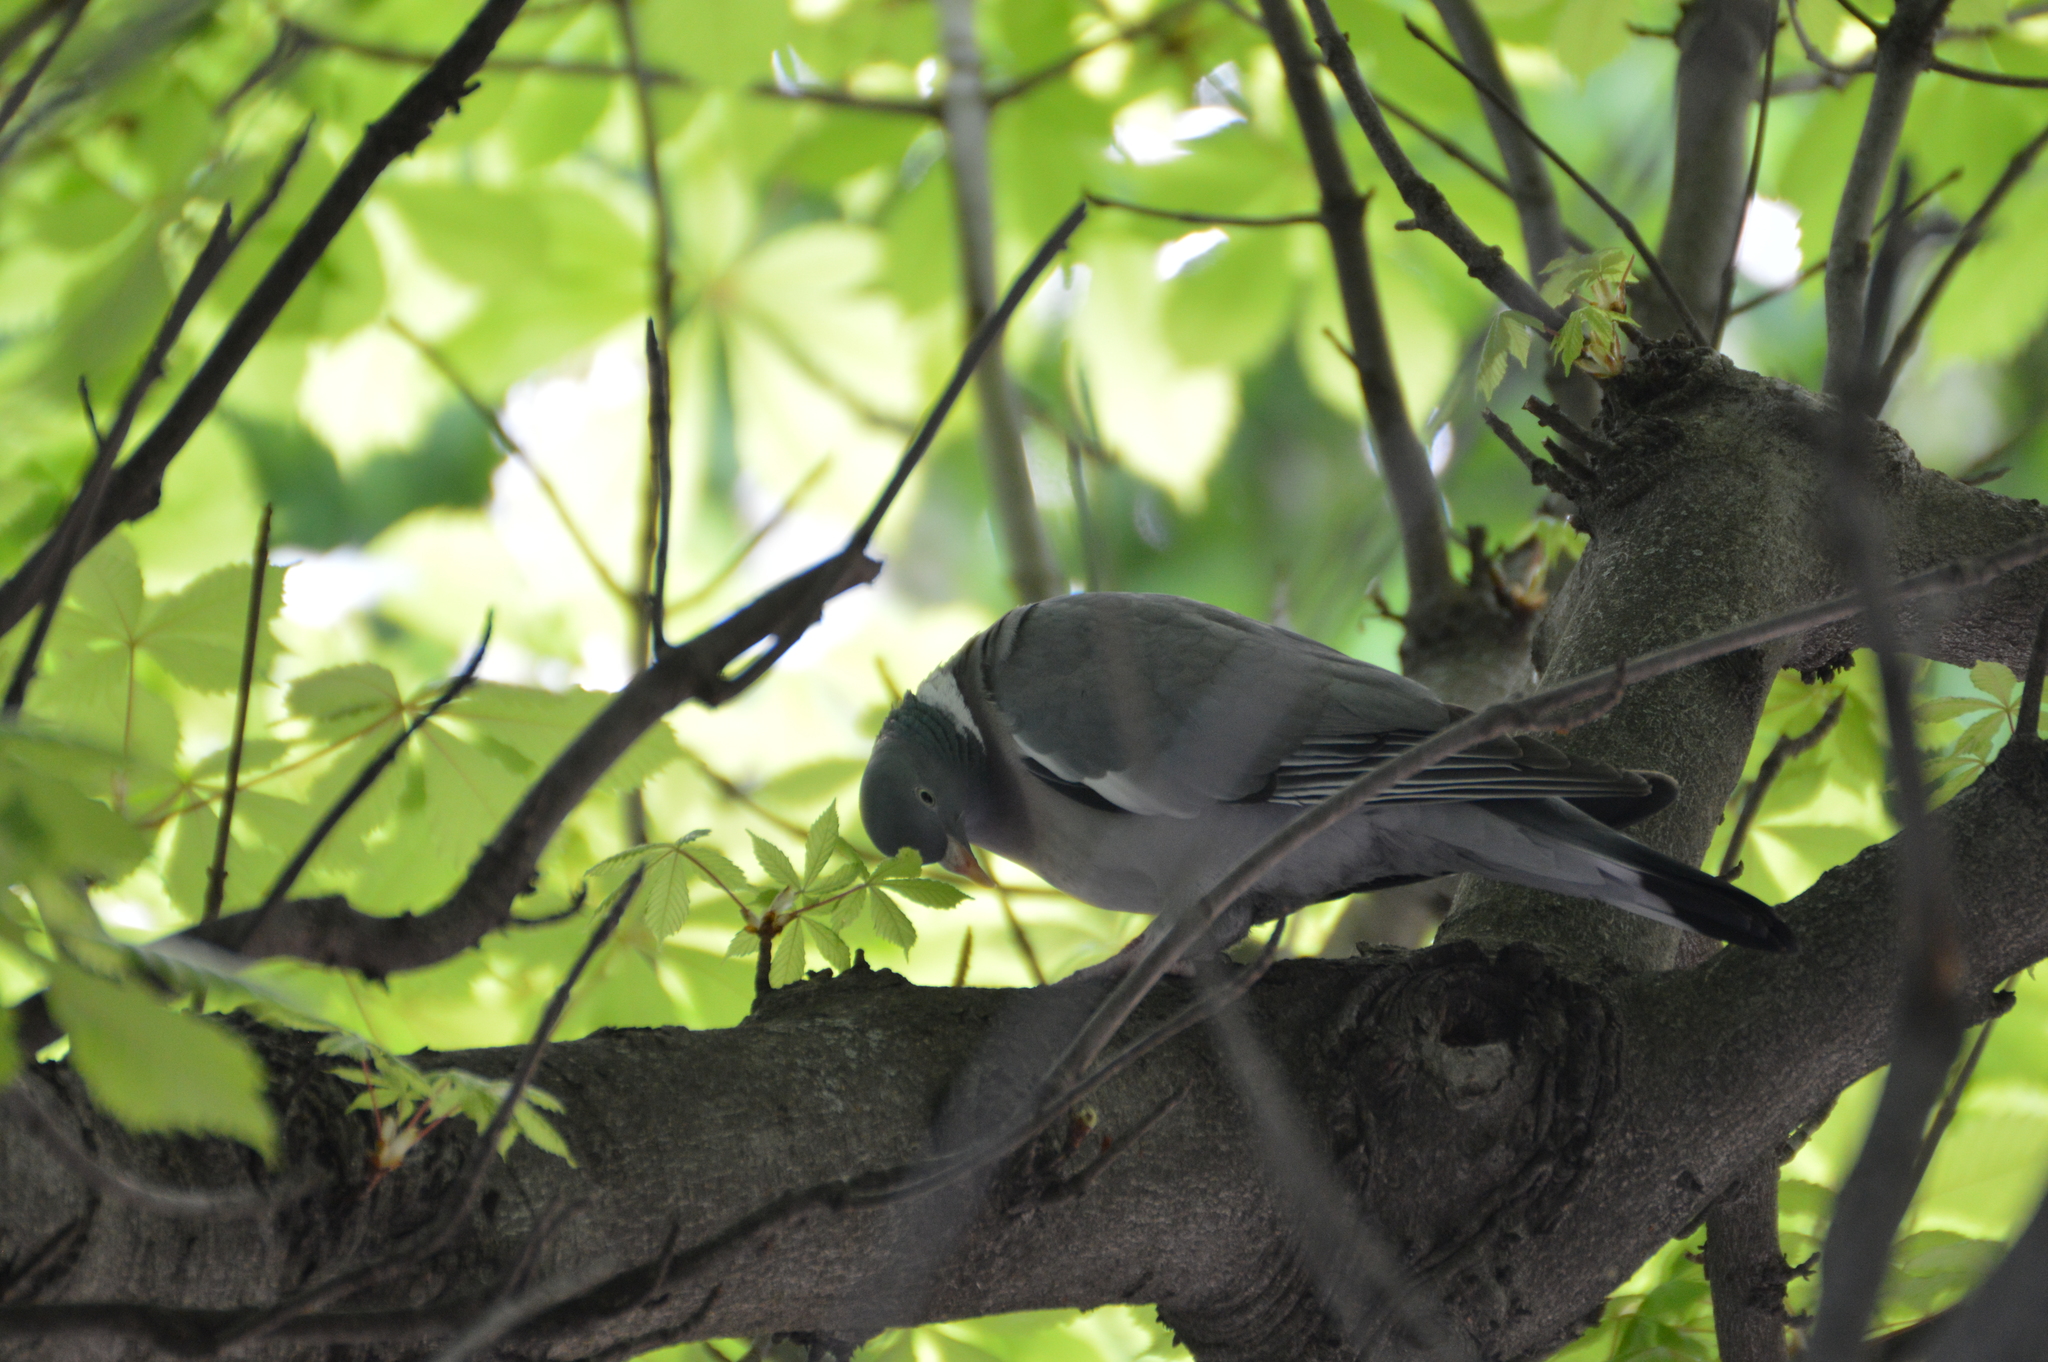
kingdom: Animalia
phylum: Chordata
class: Aves
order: Columbiformes
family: Columbidae
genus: Columba
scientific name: Columba palumbus
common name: Common wood pigeon
